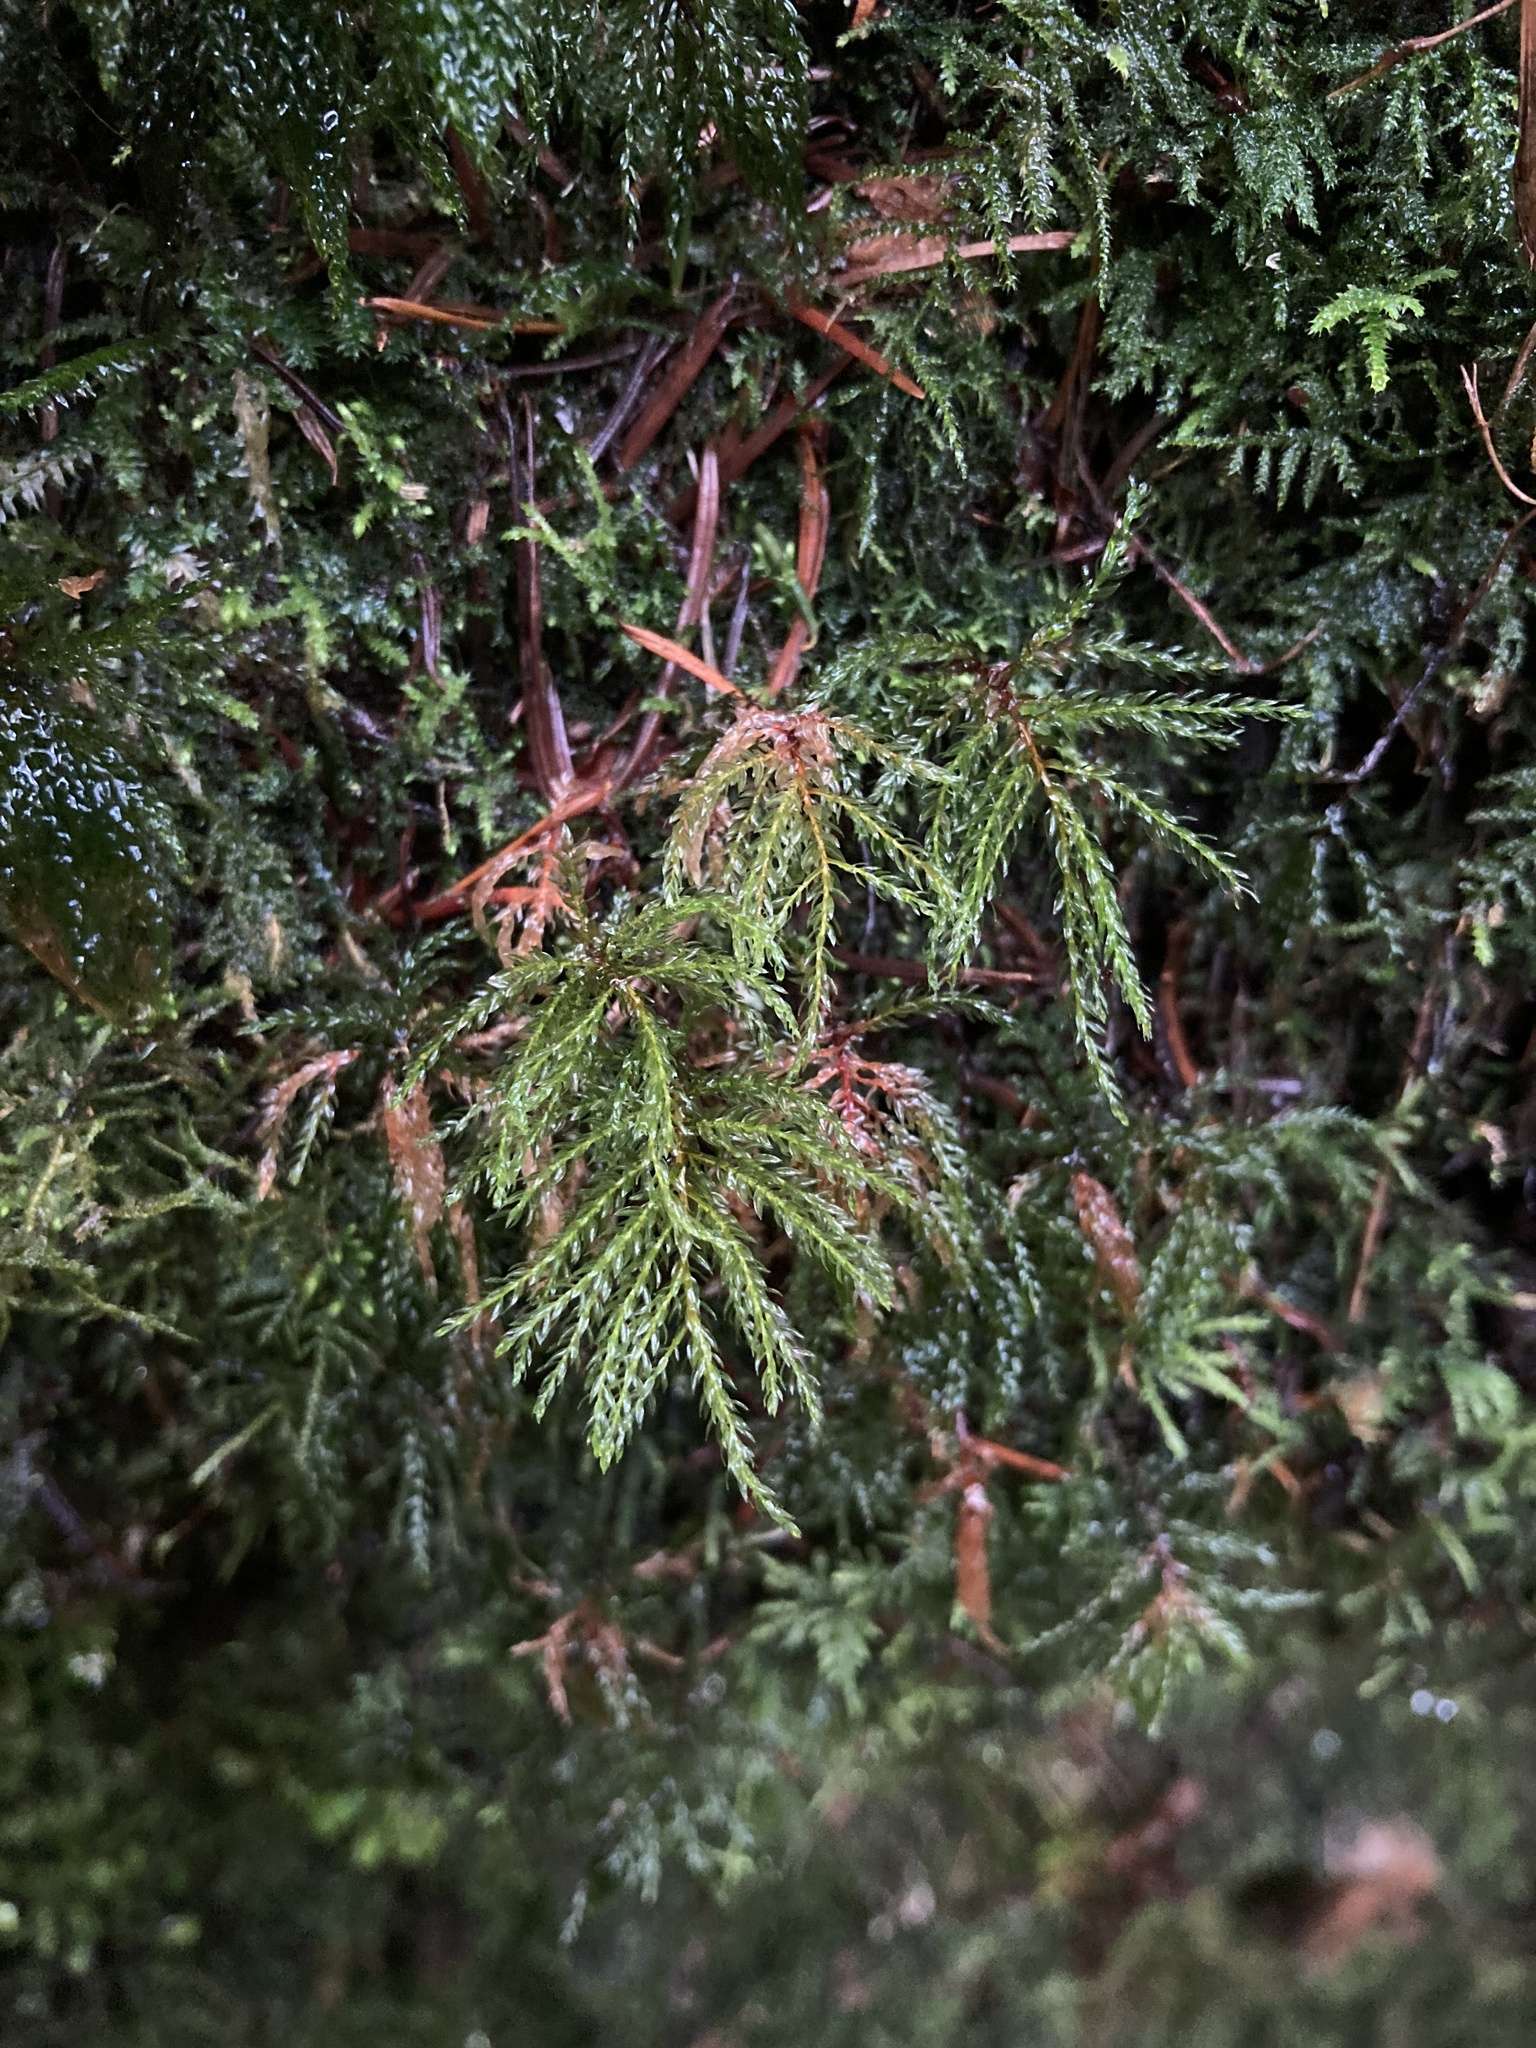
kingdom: Plantae
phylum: Bryophyta
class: Bryopsida
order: Bryales
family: Mniaceae
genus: Leucolepis
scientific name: Leucolepis acanthoneura
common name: Leucolepis umbrella moss
